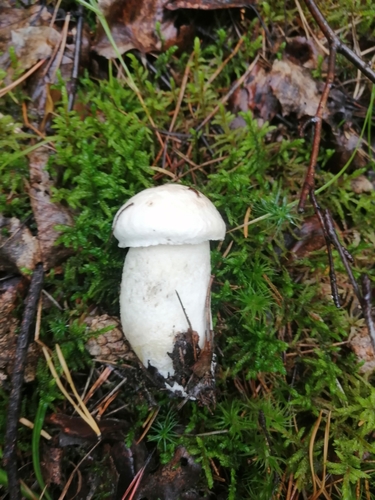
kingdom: Fungi
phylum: Basidiomycota
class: Agaricomycetes
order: Boletales
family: Boletaceae
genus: Leccinum
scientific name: Leccinum versipelle
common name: Orange birch bolete
